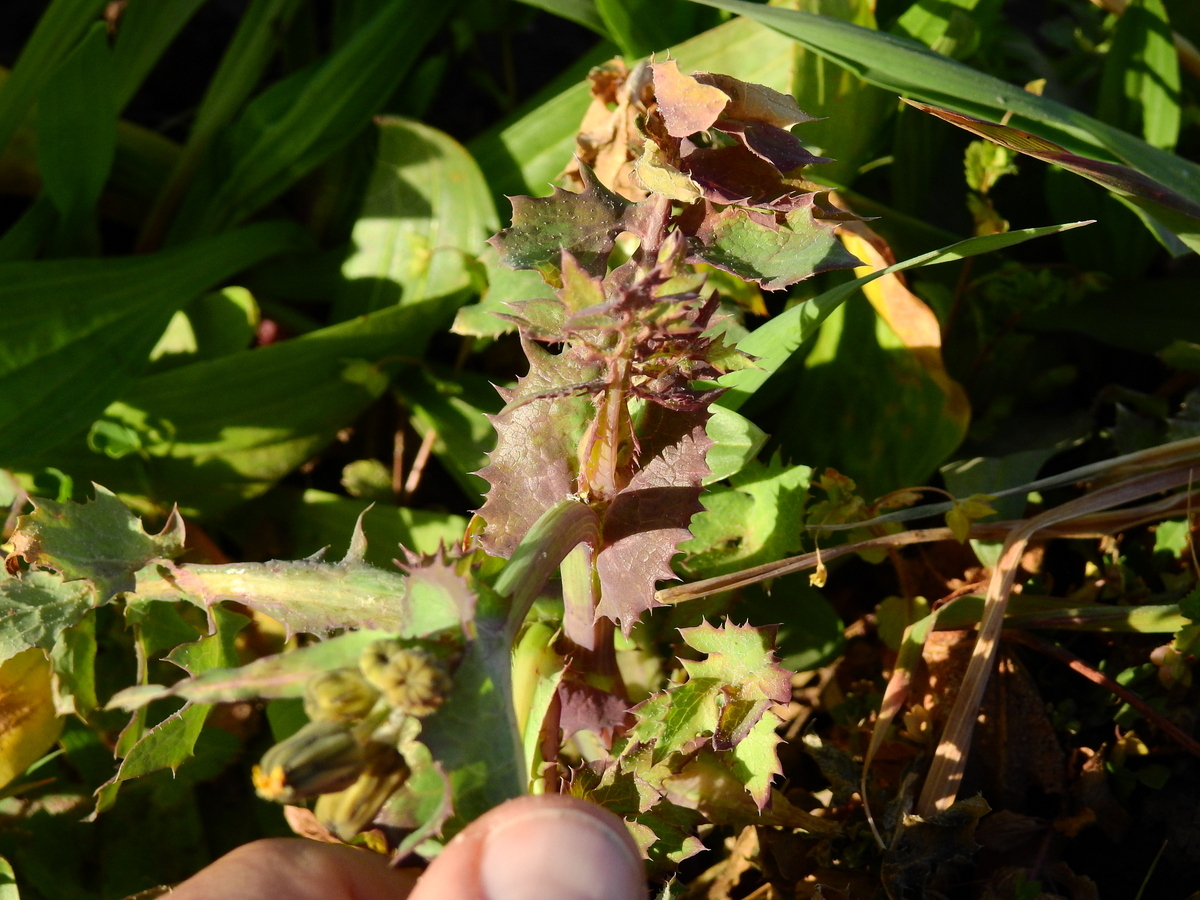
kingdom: Plantae
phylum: Tracheophyta
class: Magnoliopsida
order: Asterales
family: Asteraceae
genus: Sonchus
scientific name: Sonchus asper
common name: Prickly sow-thistle
